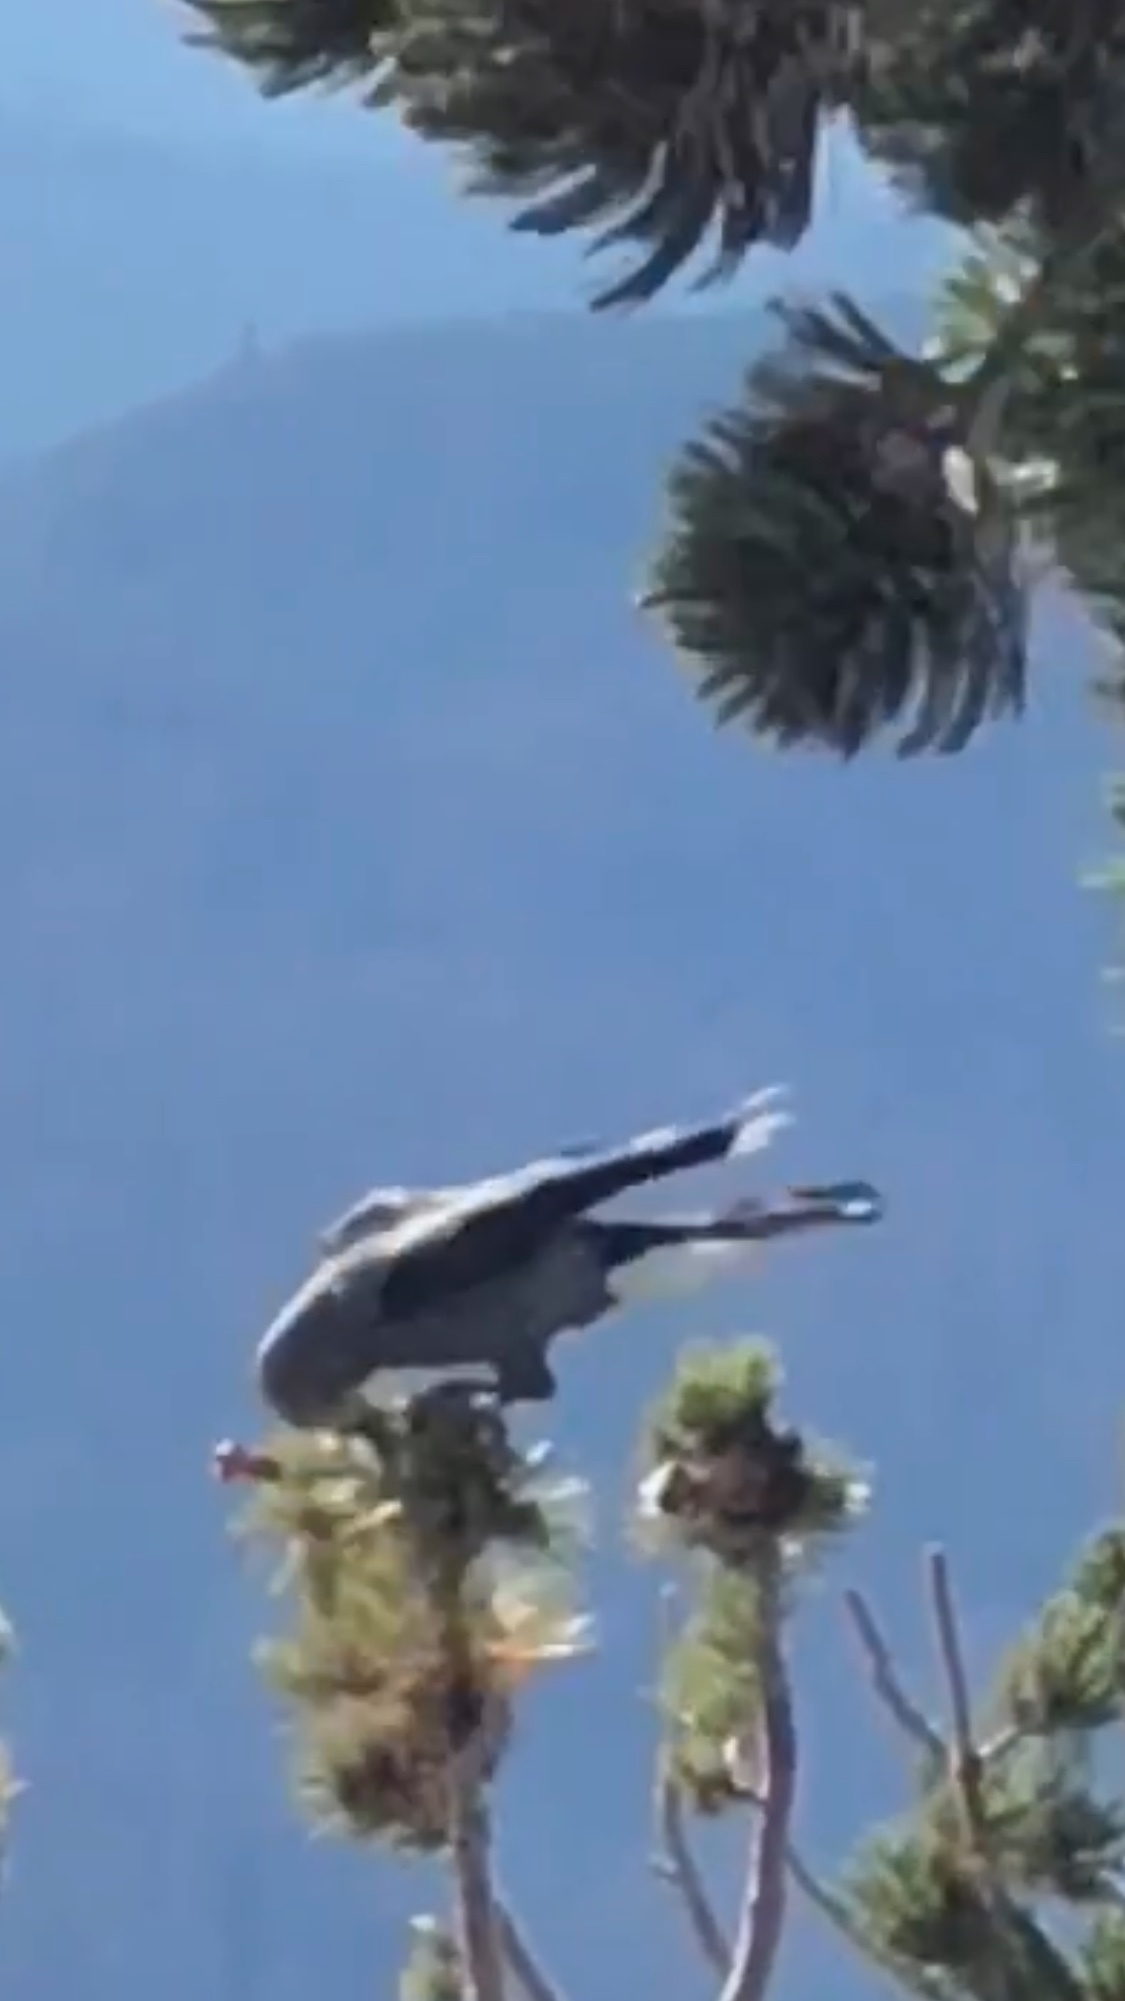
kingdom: Animalia
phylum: Chordata
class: Aves
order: Passeriformes
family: Corvidae
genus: Nucifraga
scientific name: Nucifraga columbiana
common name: Clark's nutcracker
